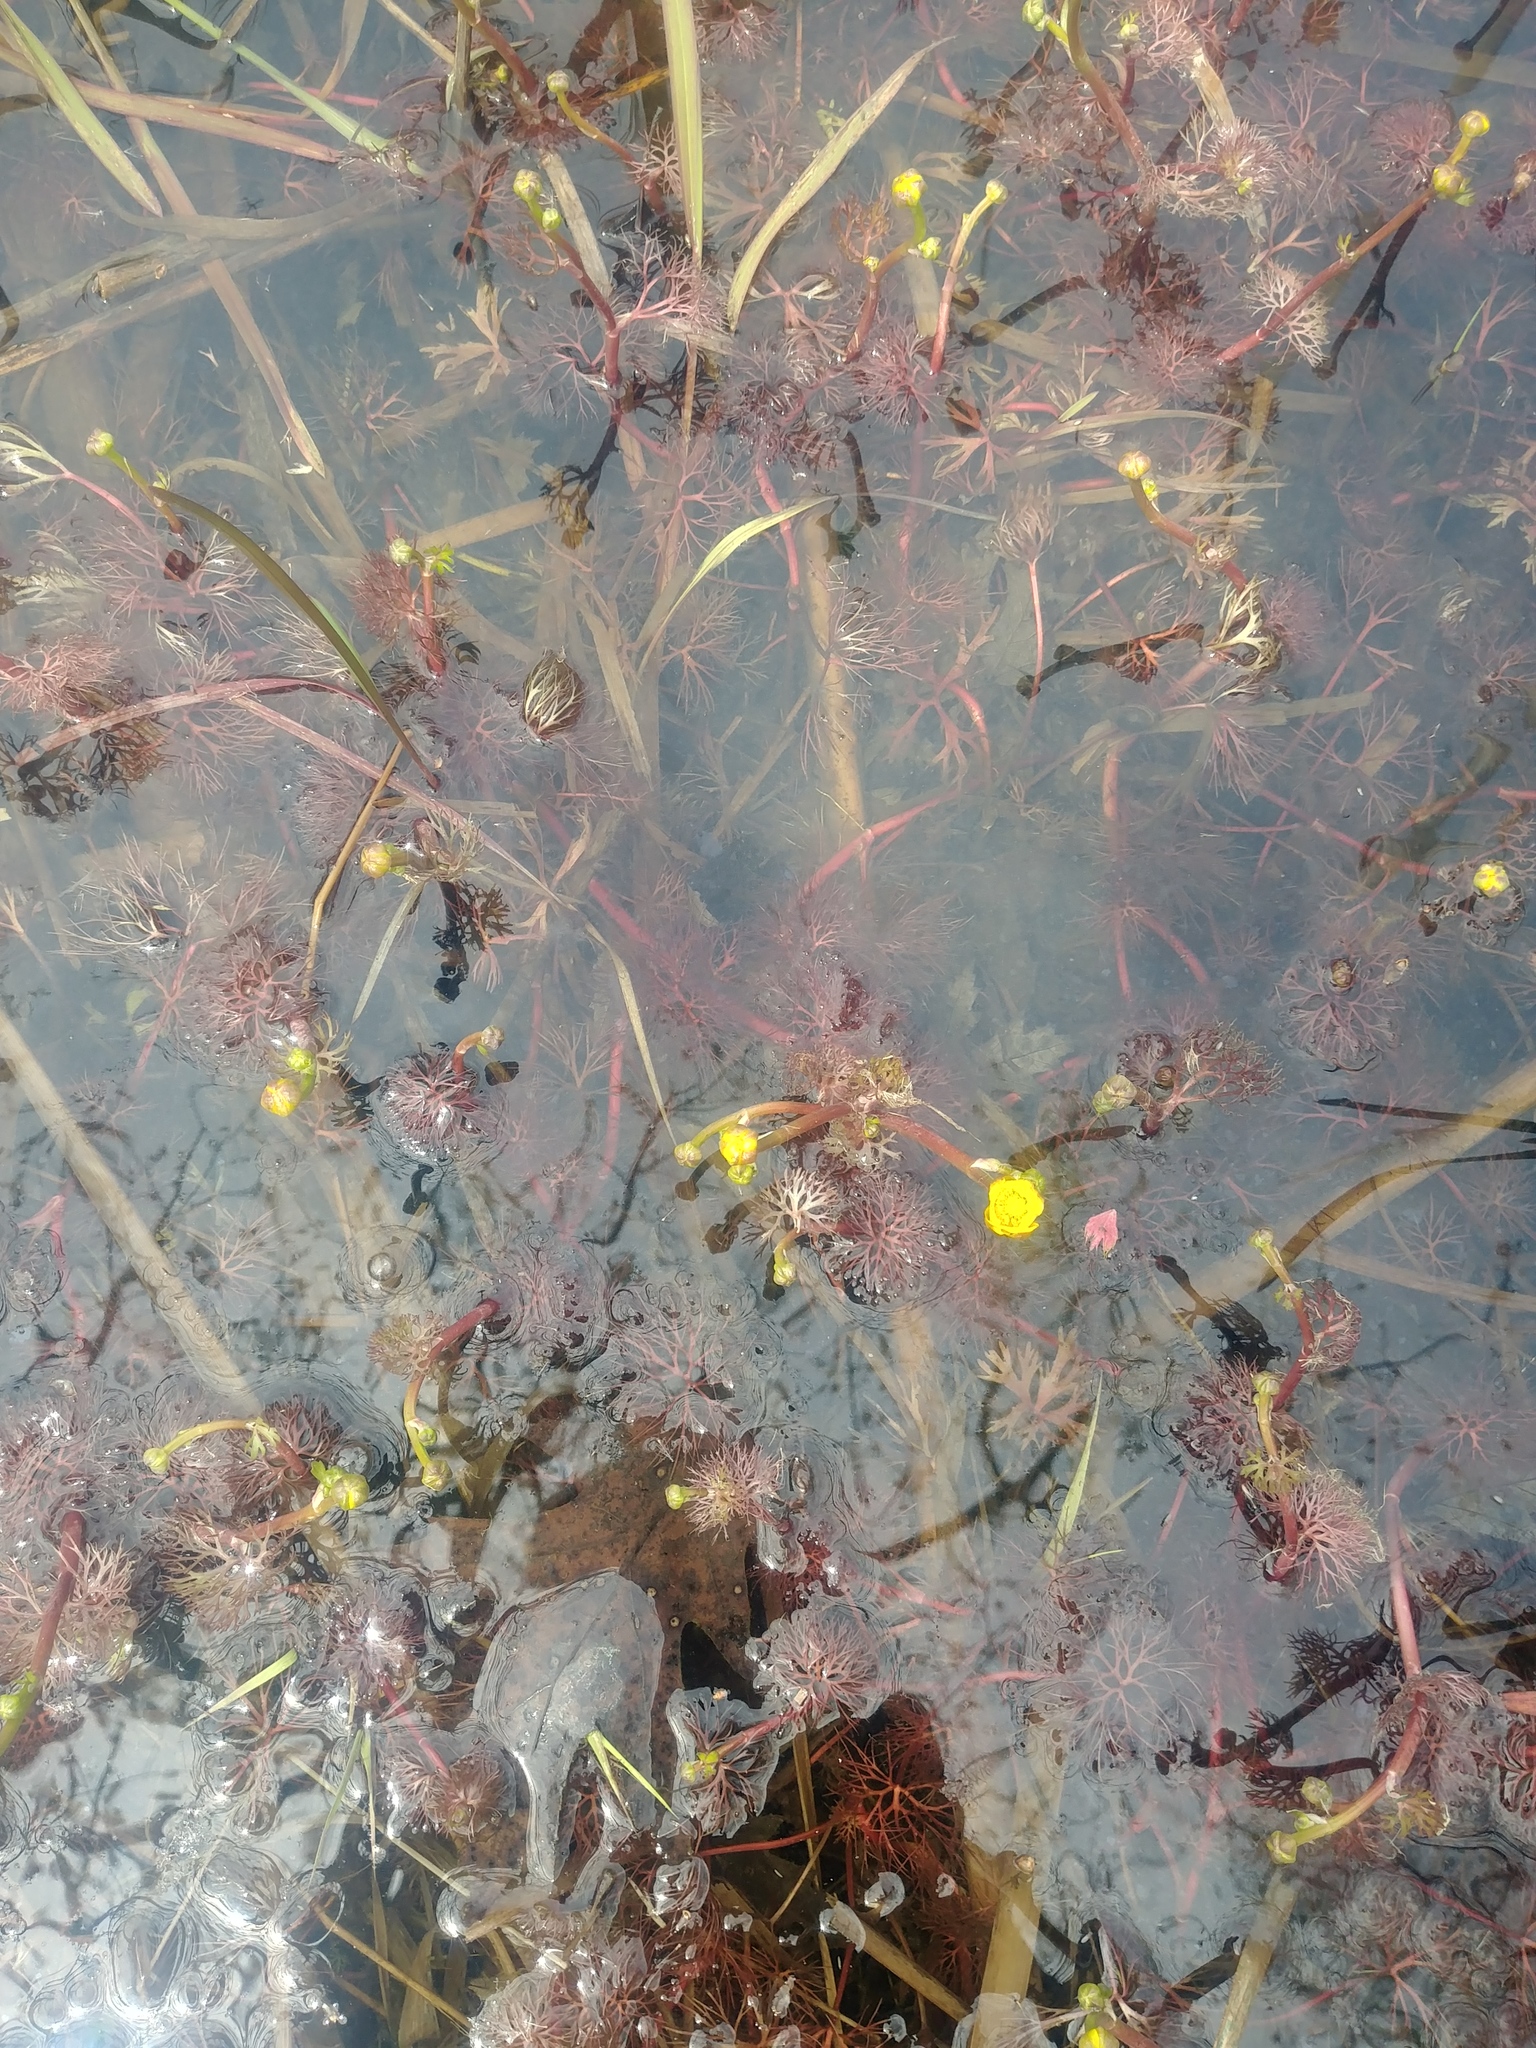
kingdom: Plantae
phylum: Tracheophyta
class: Magnoliopsida
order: Ranunculales
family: Ranunculaceae
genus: Ranunculus
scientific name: Ranunculus flabellaris
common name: Yellow water-crowfoot
